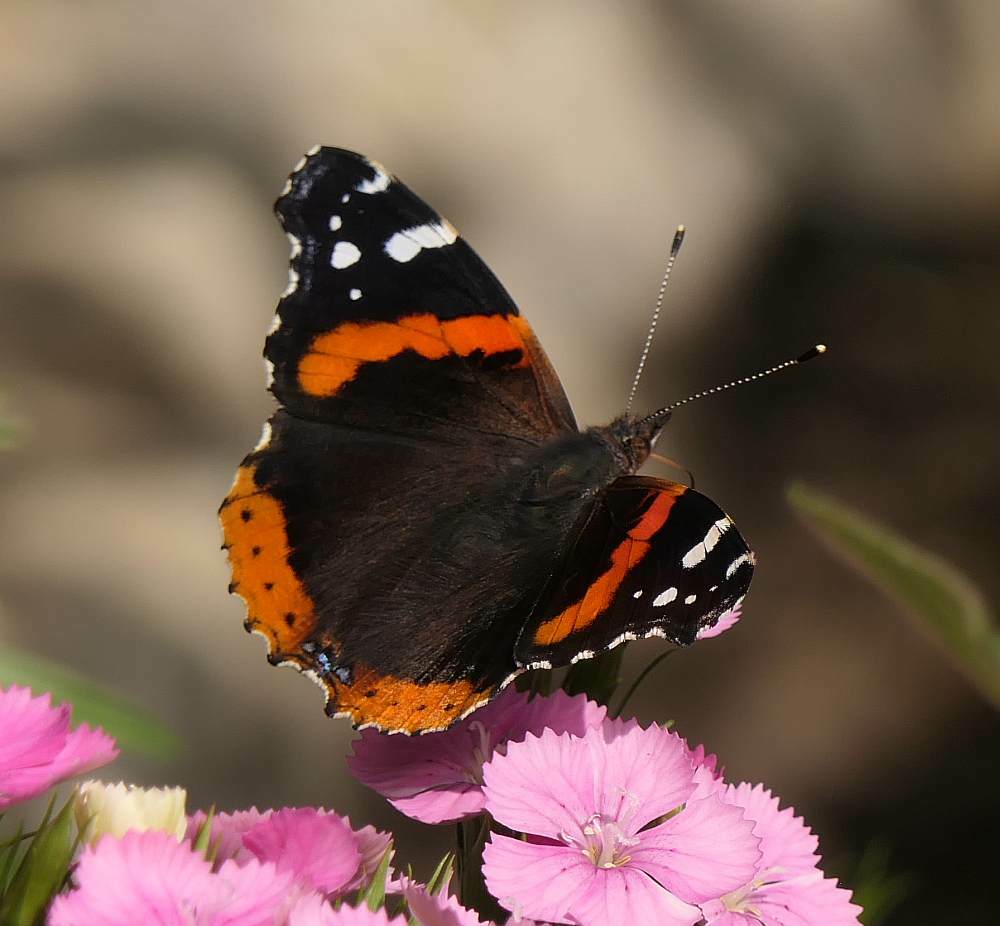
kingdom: Animalia
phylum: Arthropoda
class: Insecta
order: Lepidoptera
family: Nymphalidae
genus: Vanessa
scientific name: Vanessa atalanta
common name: Red admiral
